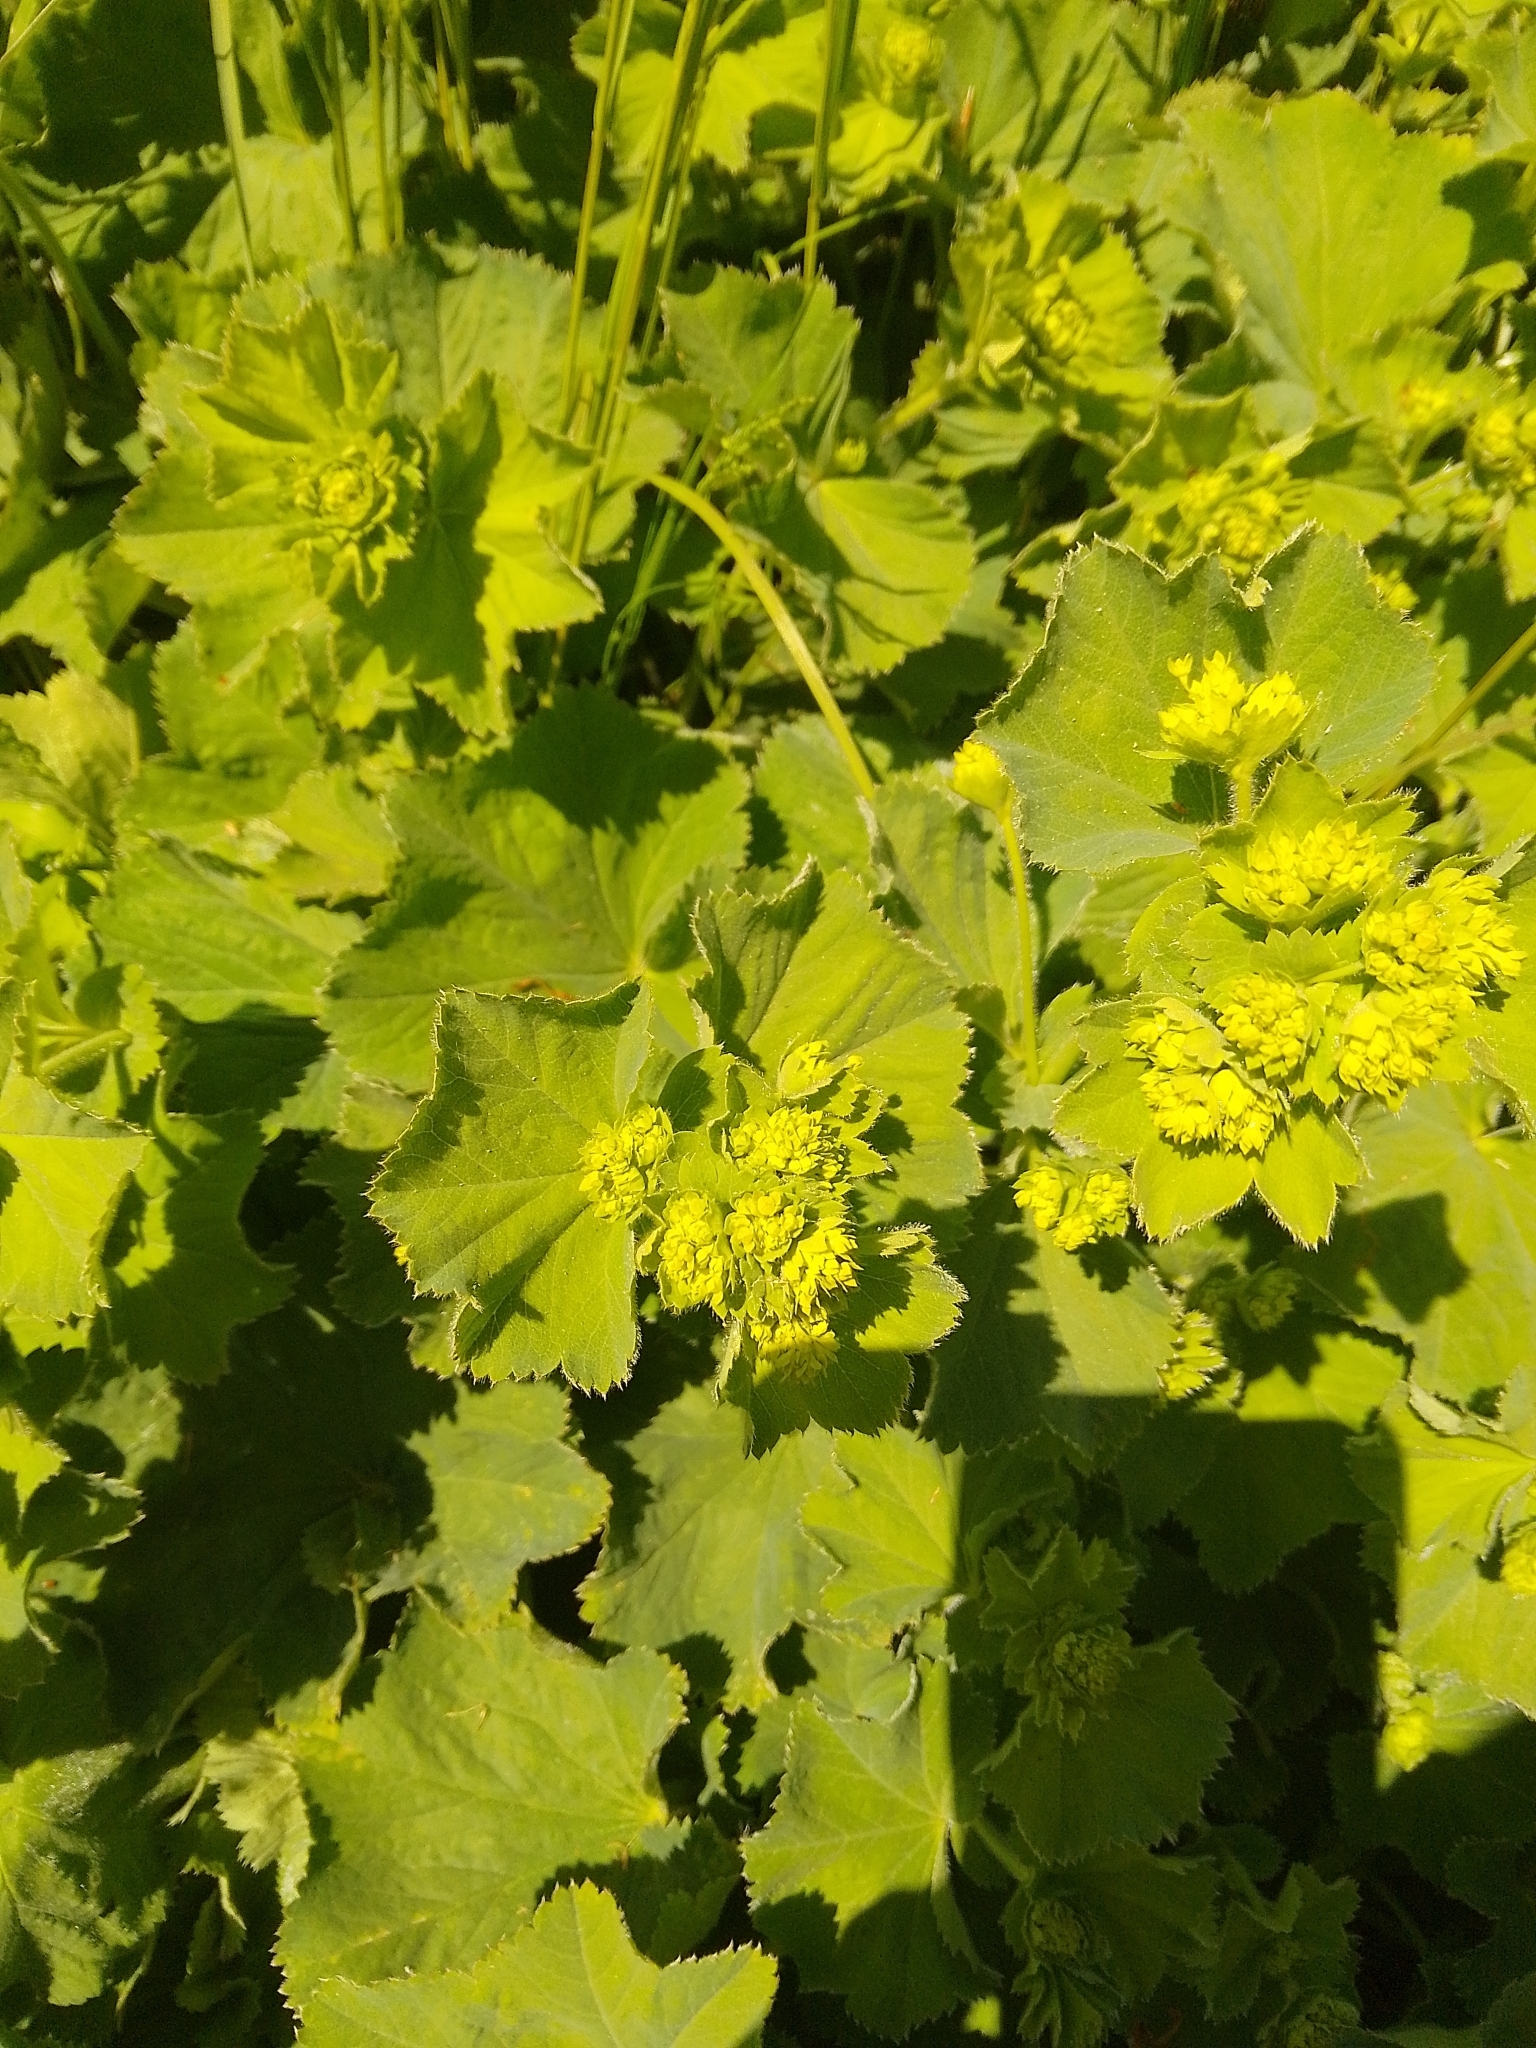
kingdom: Plantae
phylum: Tracheophyta
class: Magnoliopsida
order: Rosales
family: Rosaceae
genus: Alchemilla
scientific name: Alchemilla mollis
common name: Lady's-mantle
